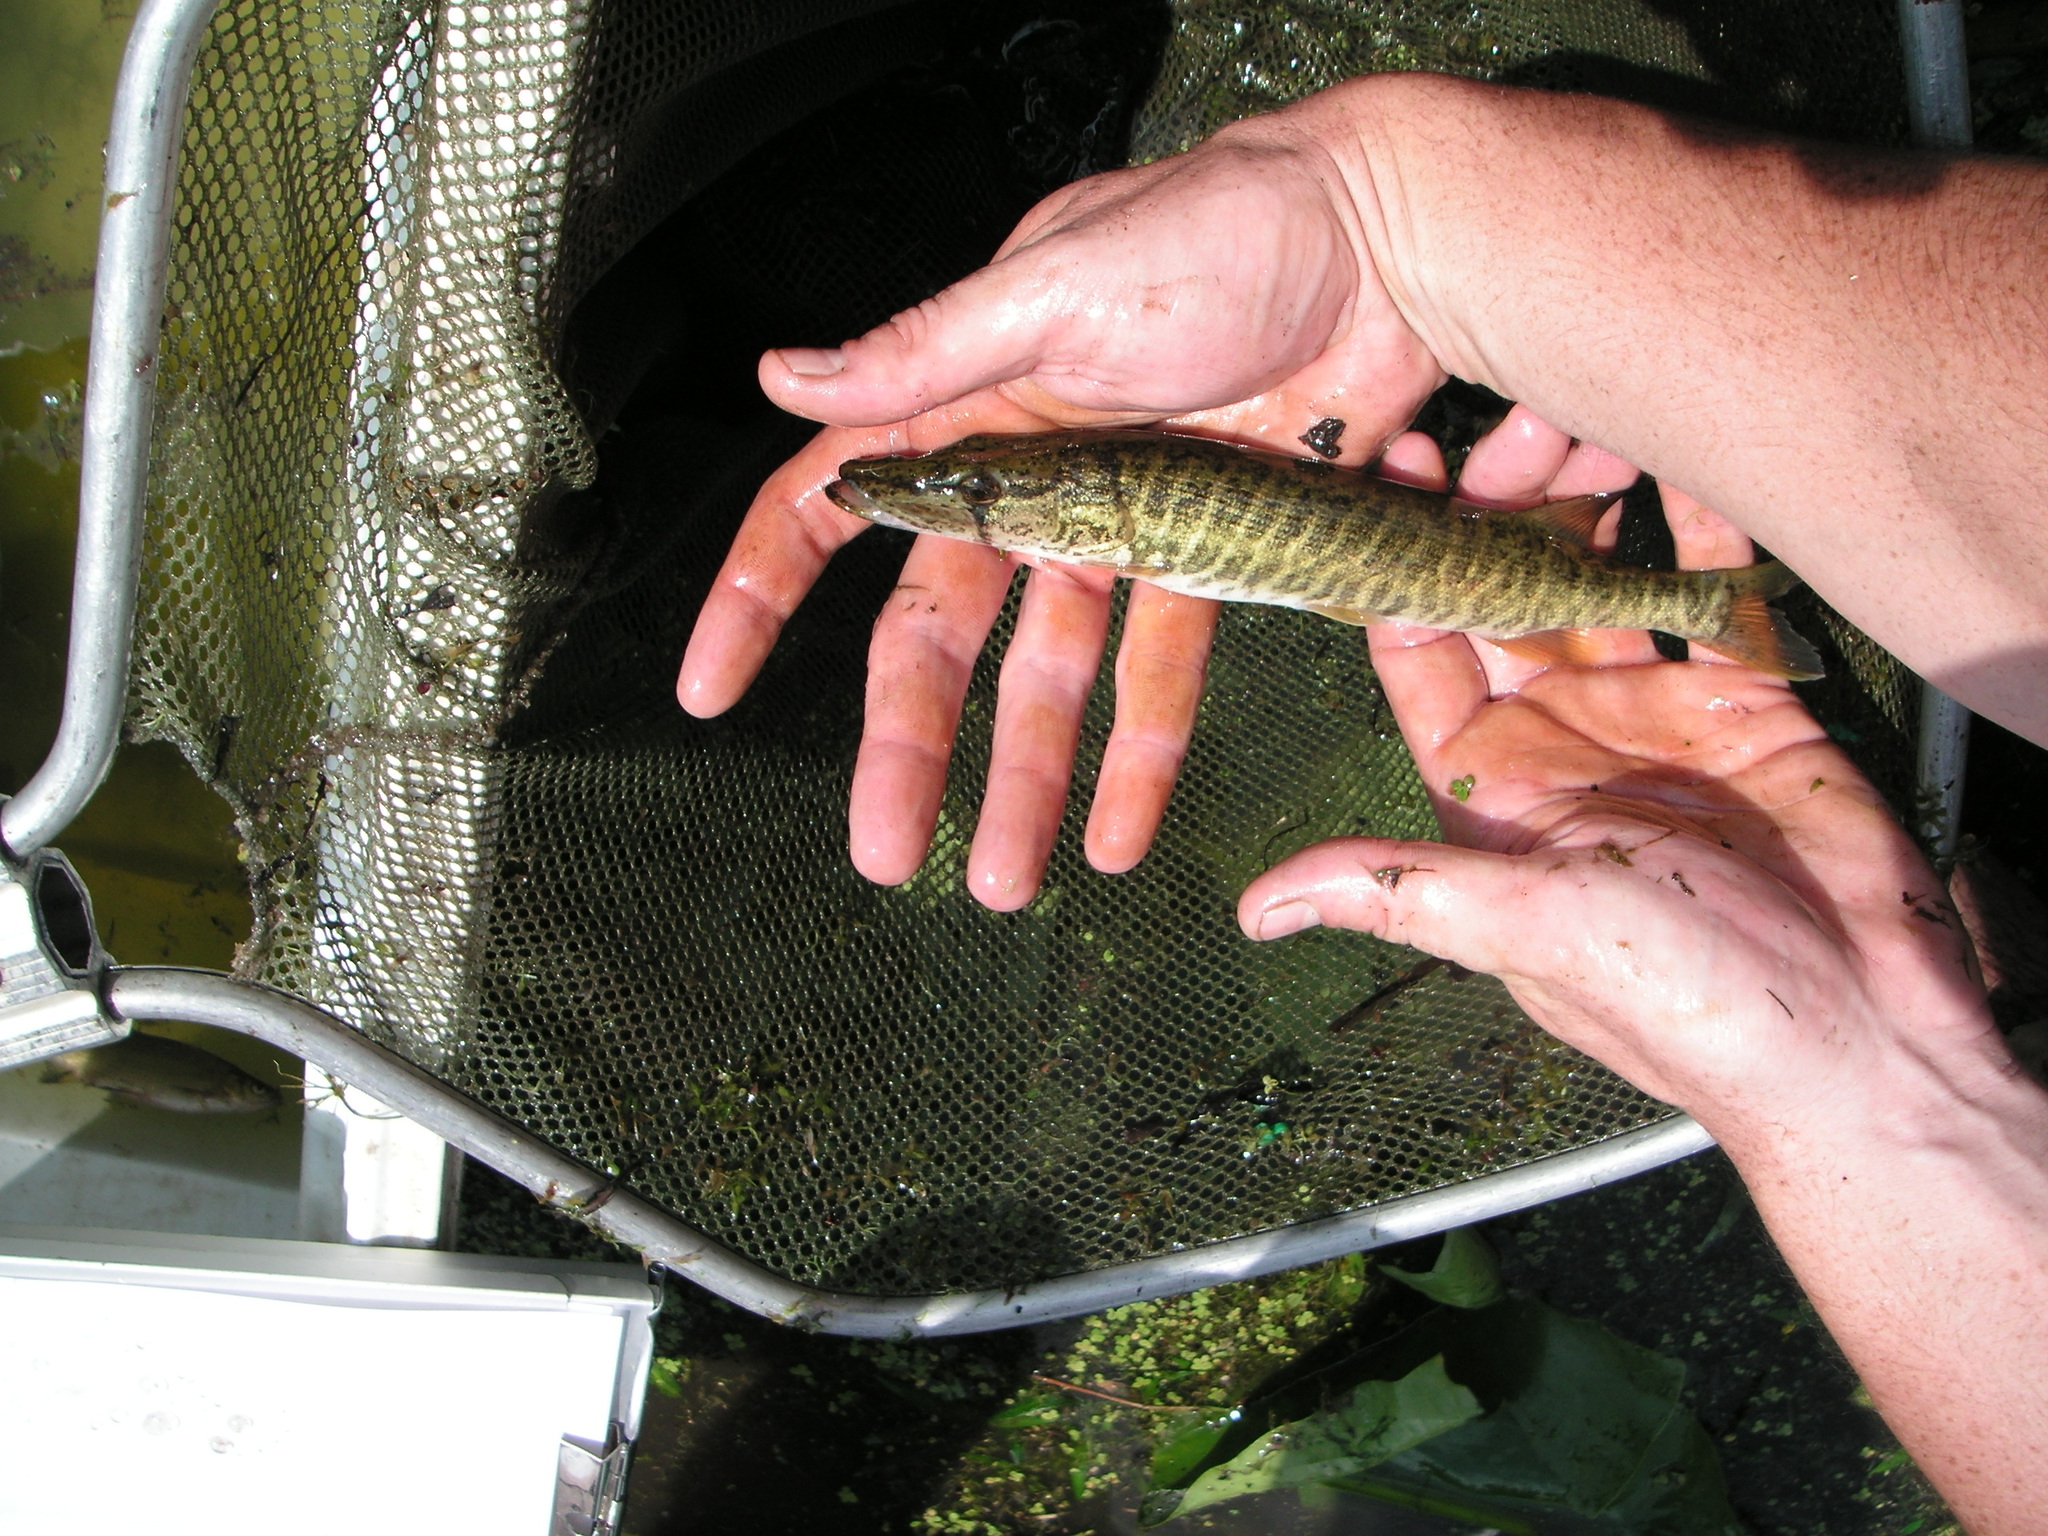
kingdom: Animalia
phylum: Chordata
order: Esociformes
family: Esocidae
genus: Esox
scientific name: Esox americanus
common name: Redfin pickerel
